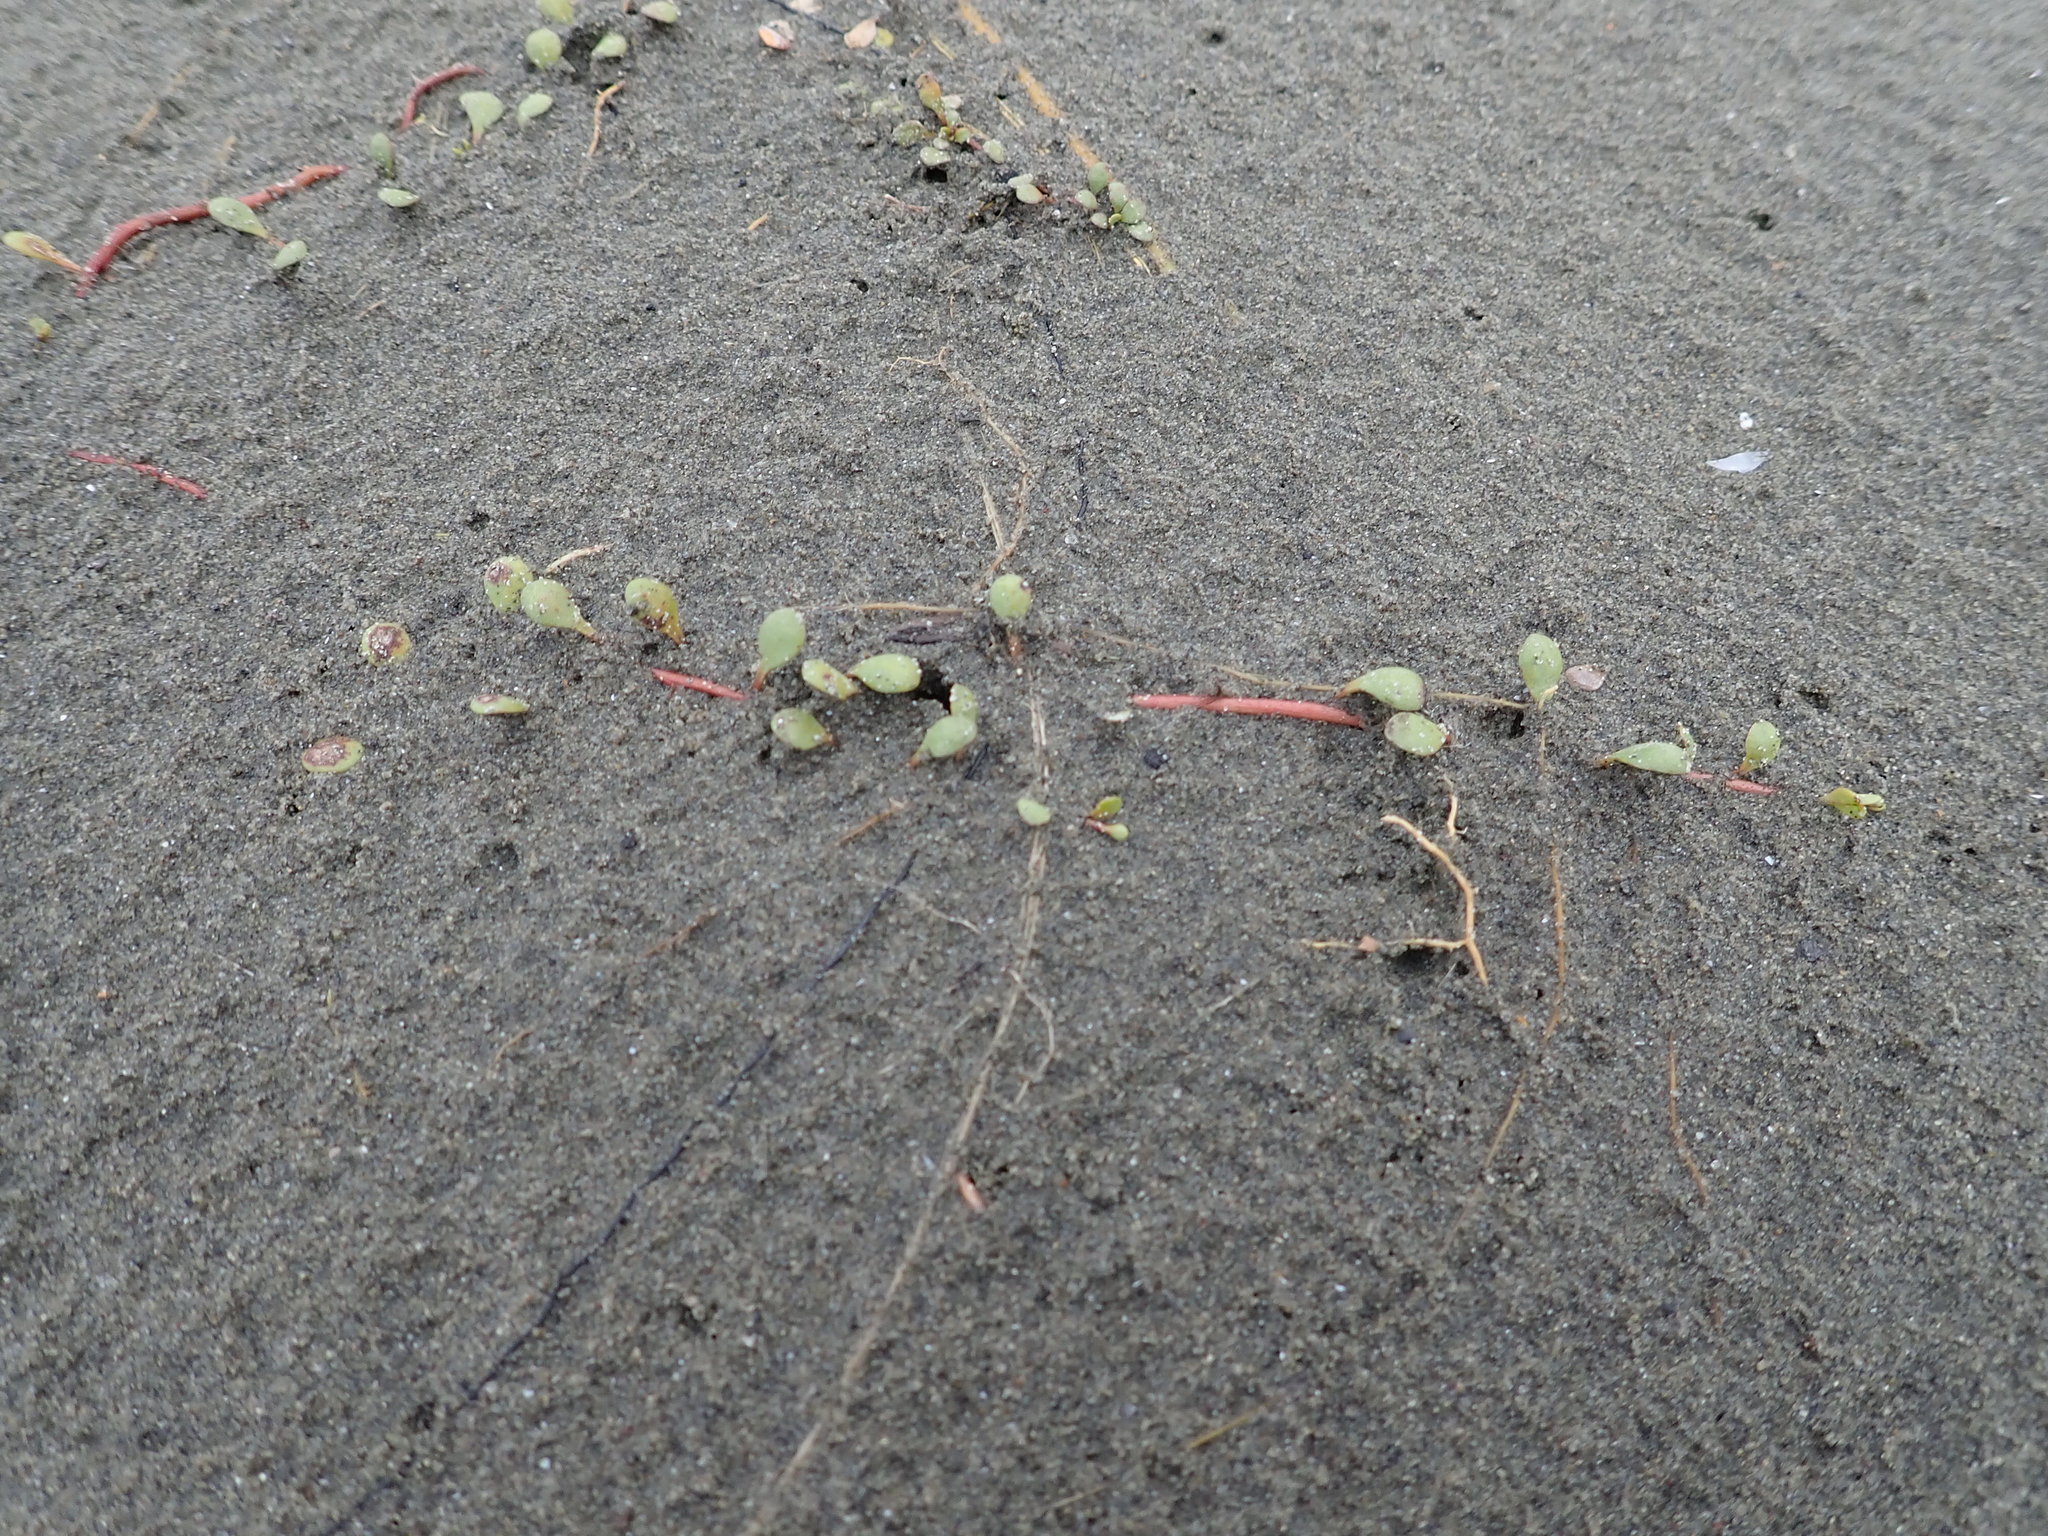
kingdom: Plantae
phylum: Tracheophyta
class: Magnoliopsida
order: Ericales
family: Primulaceae
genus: Samolus
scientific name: Samolus repens
